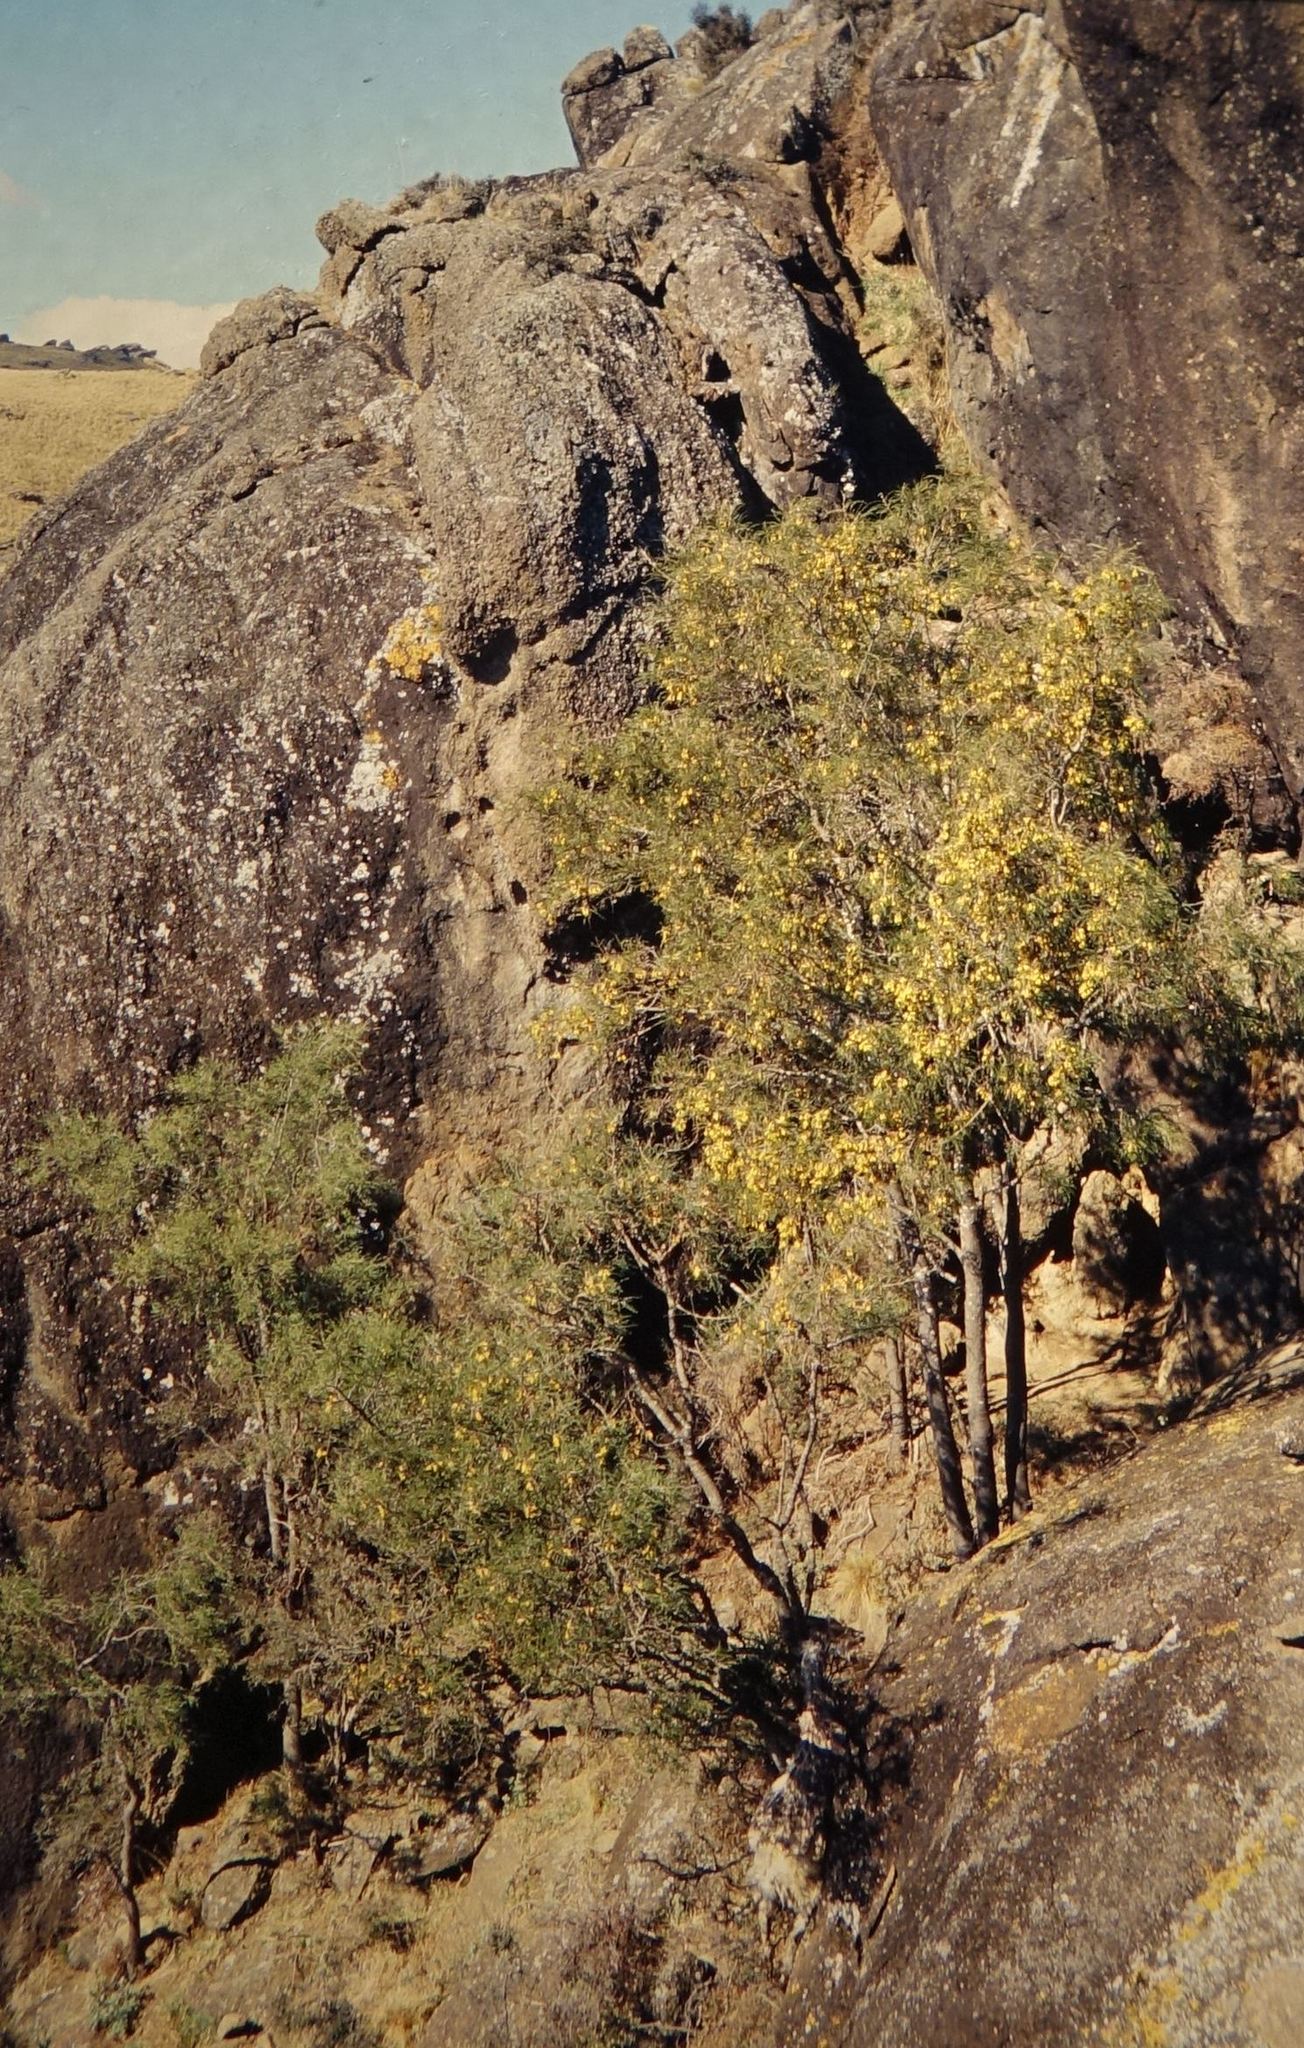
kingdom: Plantae
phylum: Tracheophyta
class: Magnoliopsida
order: Fabales
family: Fabaceae
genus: Sophora
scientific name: Sophora microphylla
